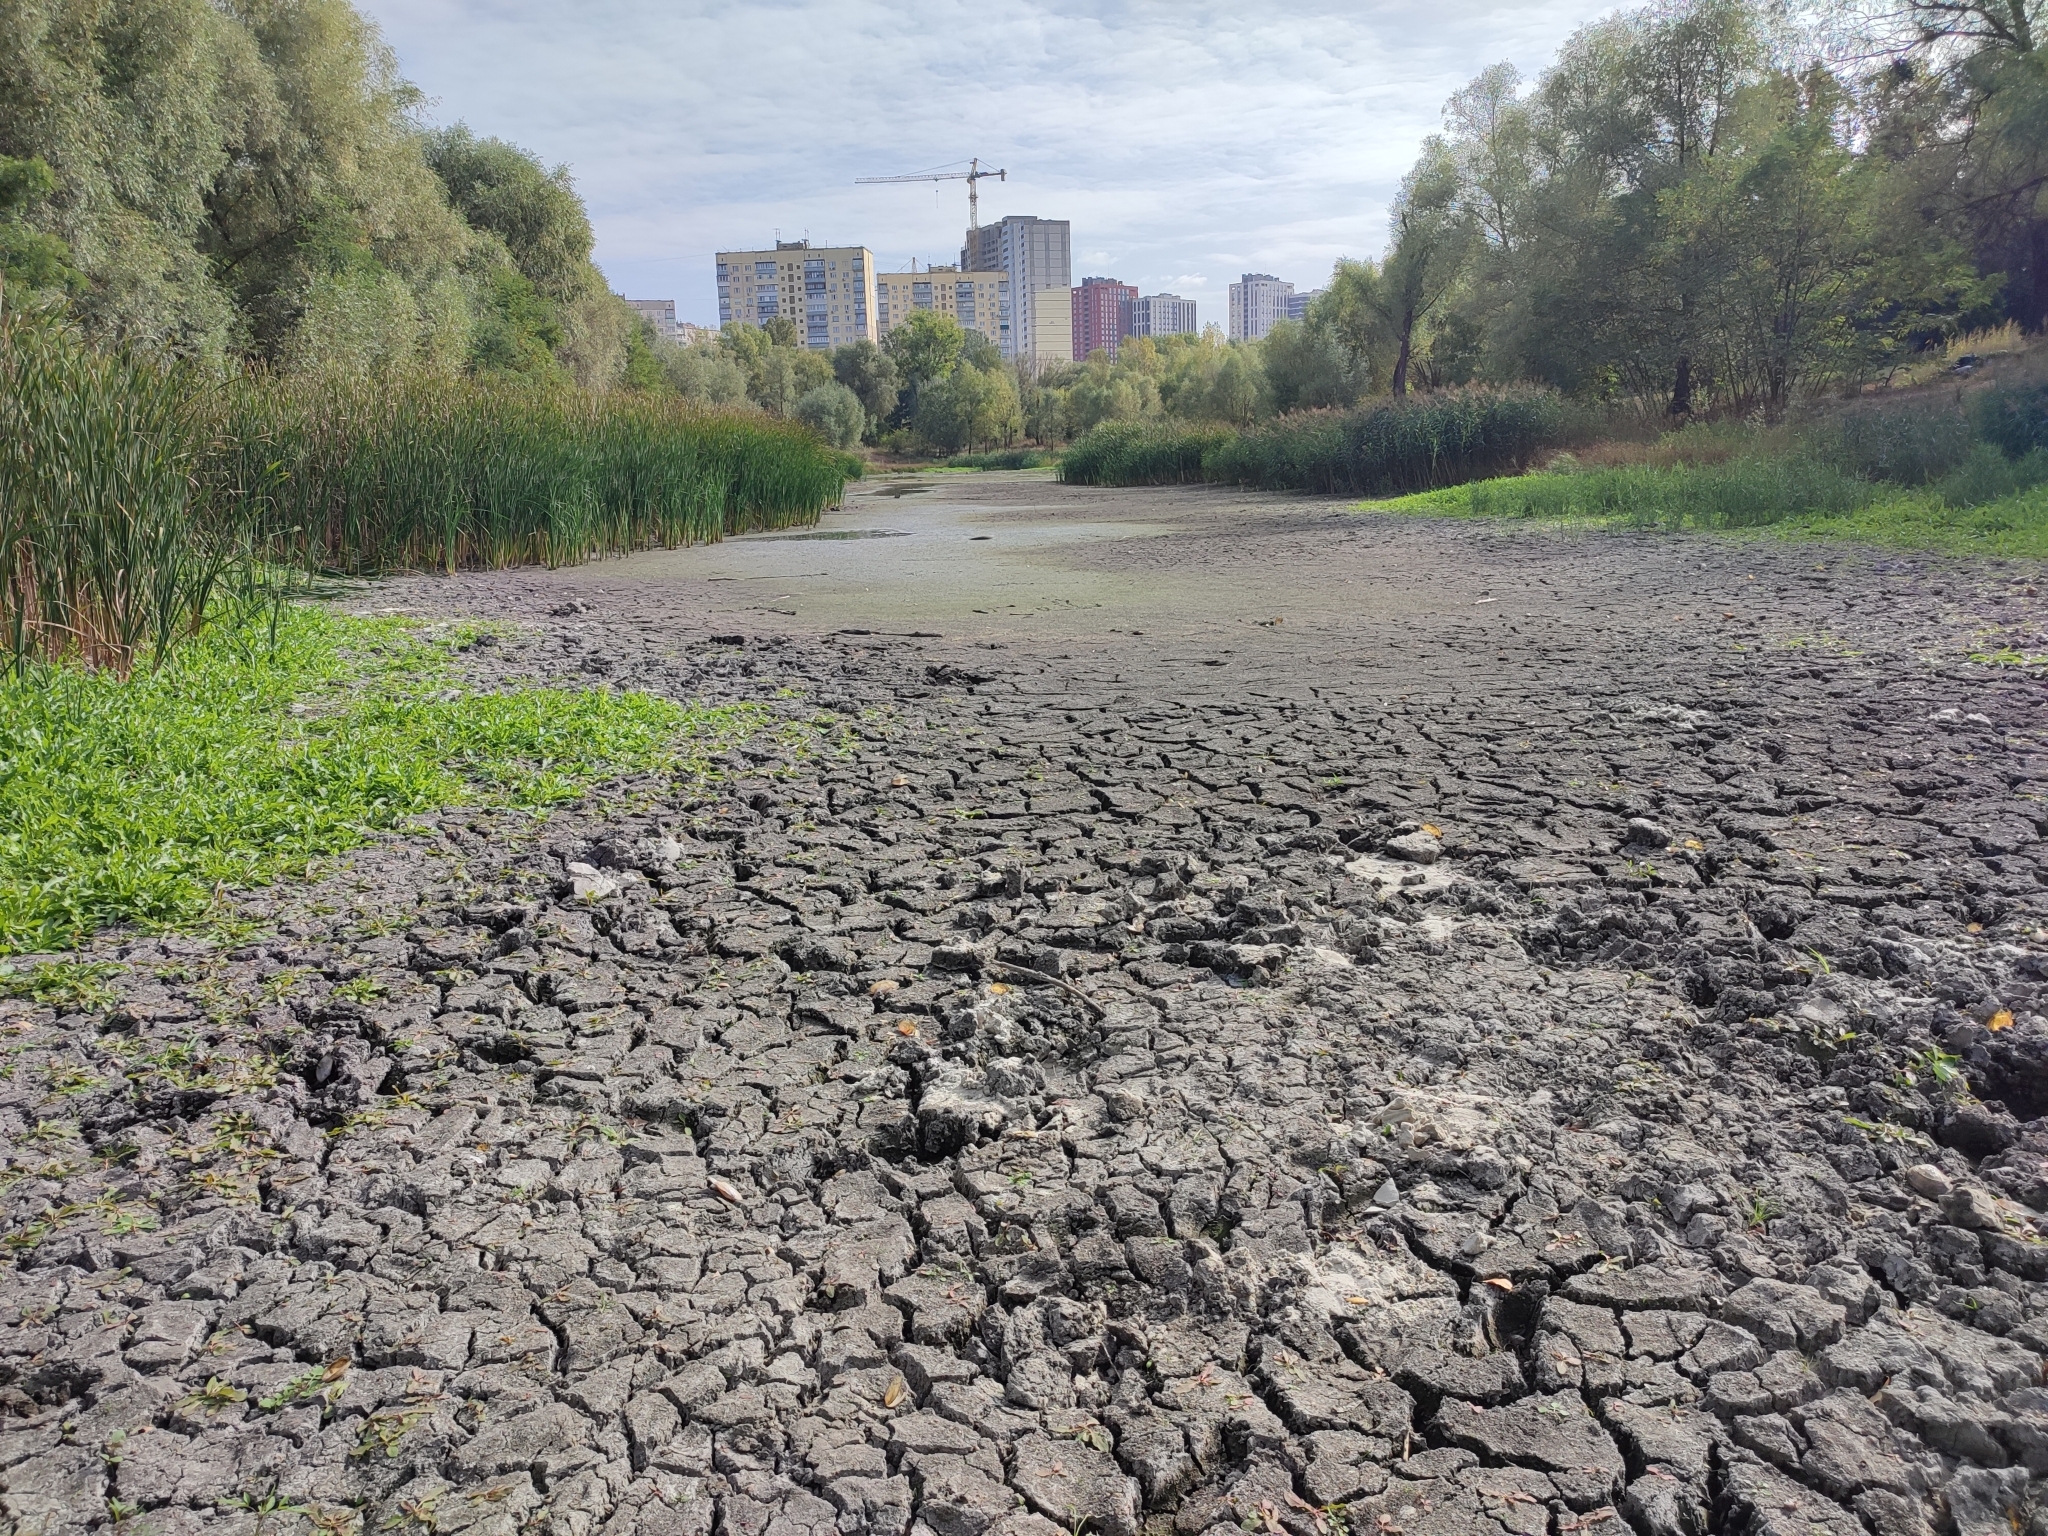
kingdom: Plantae
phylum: Tracheophyta
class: Liliopsida
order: Poales
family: Poaceae
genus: Phragmites
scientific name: Phragmites australis
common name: Common reed
